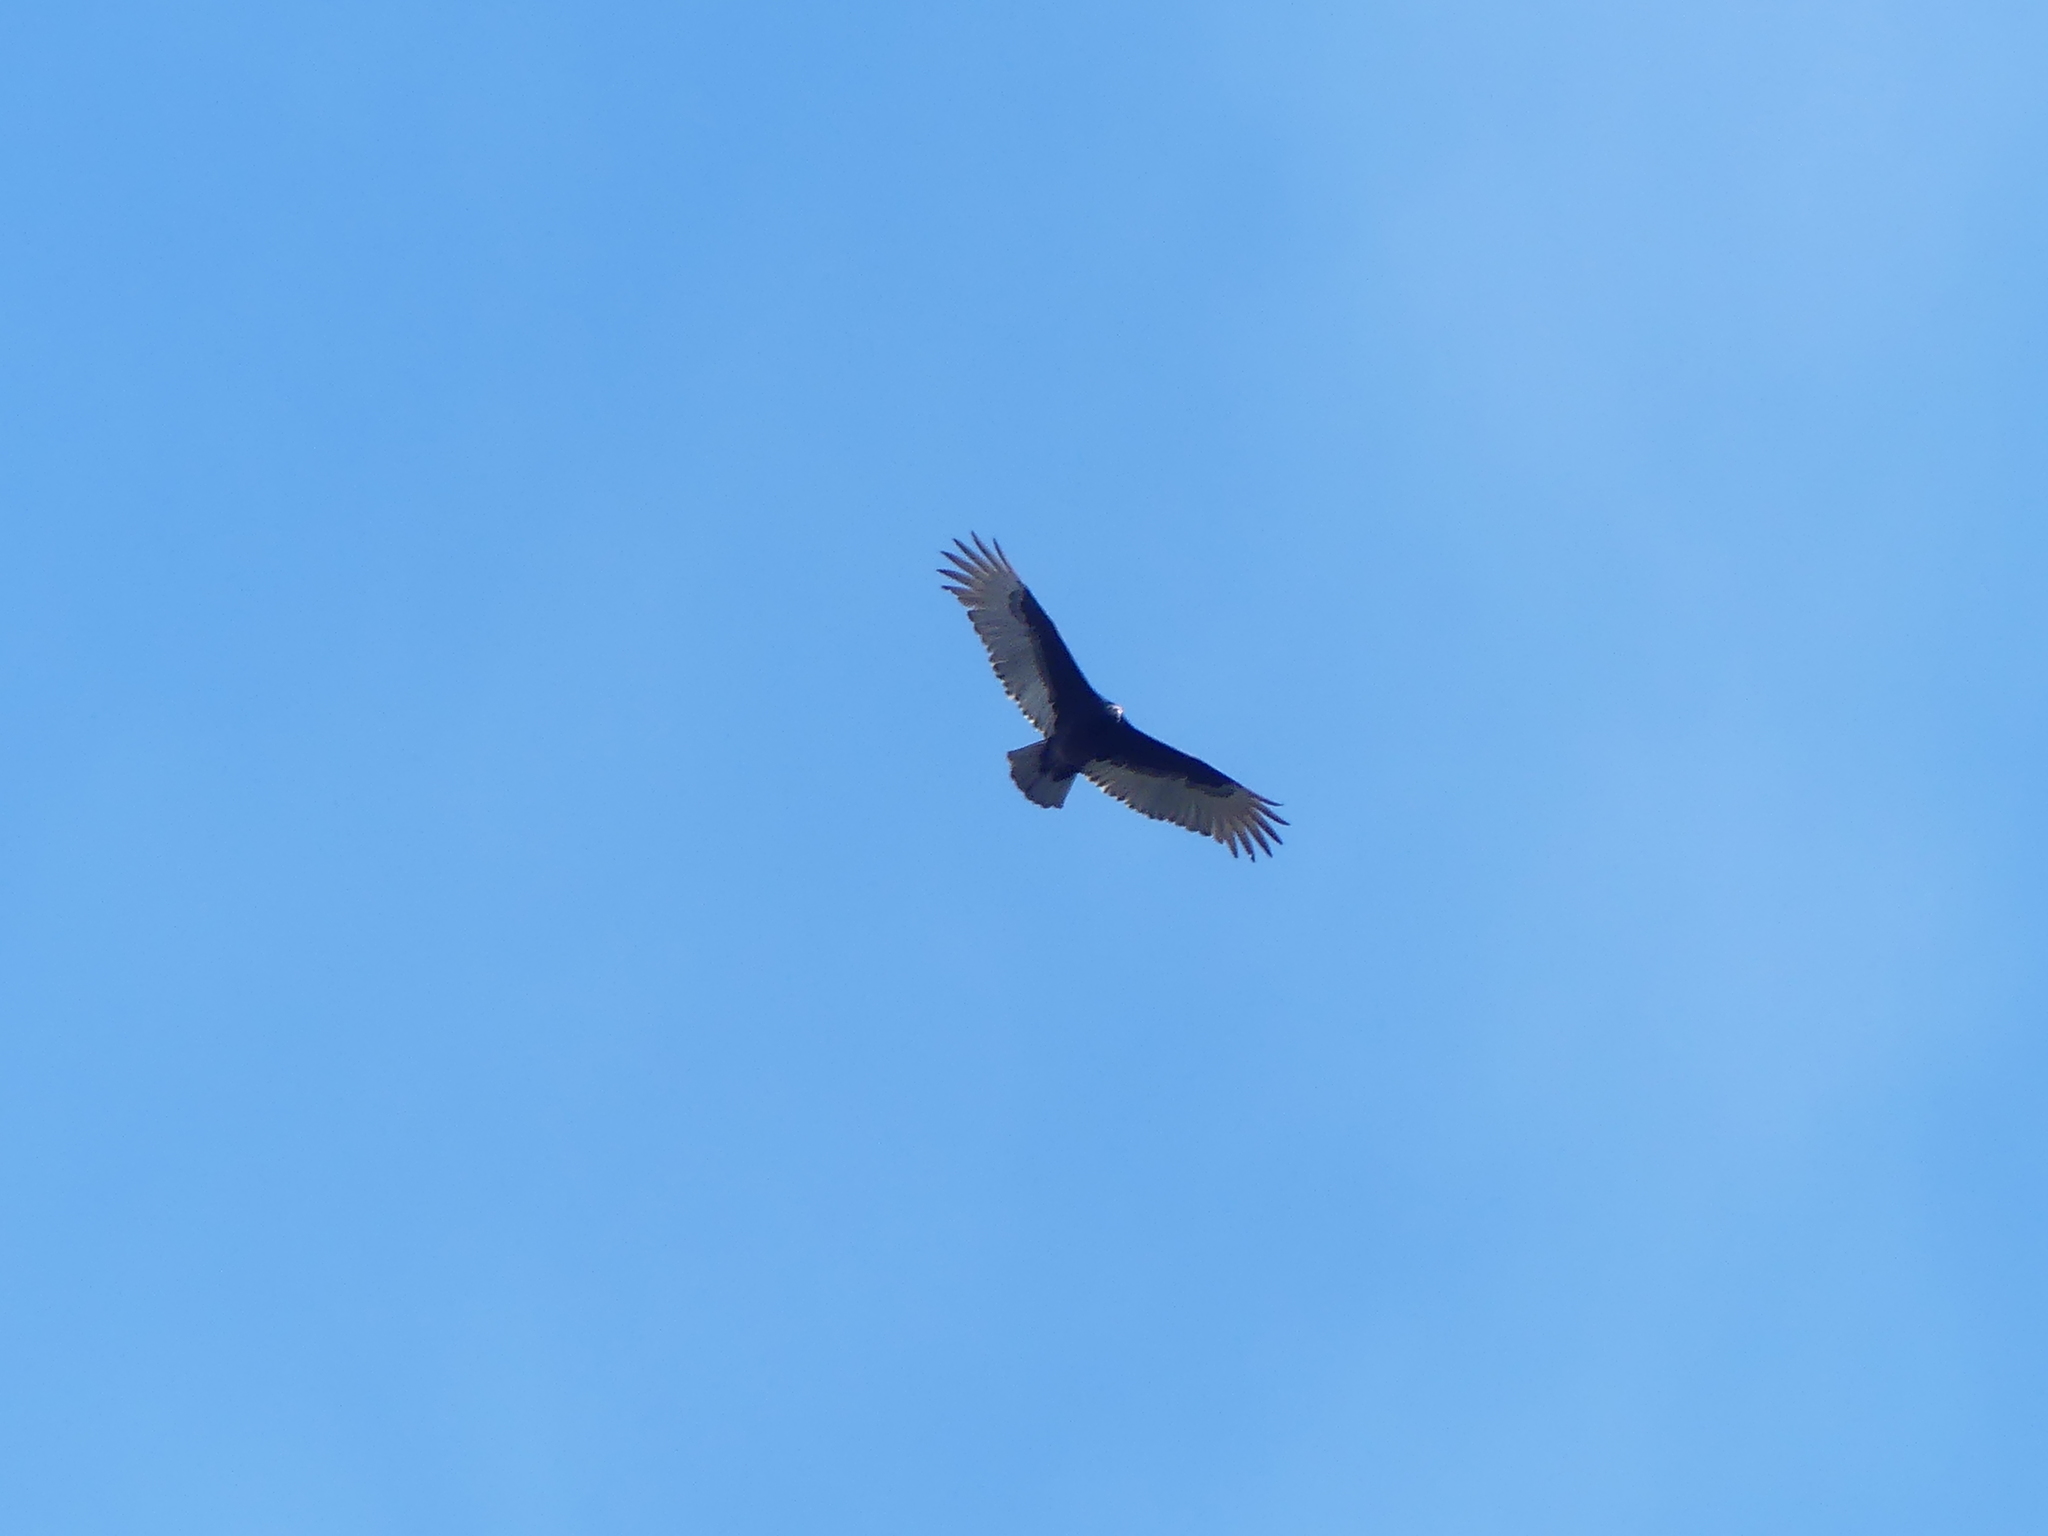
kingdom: Animalia
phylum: Chordata
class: Aves
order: Accipitriformes
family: Cathartidae
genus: Cathartes
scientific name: Cathartes aura
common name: Turkey vulture
